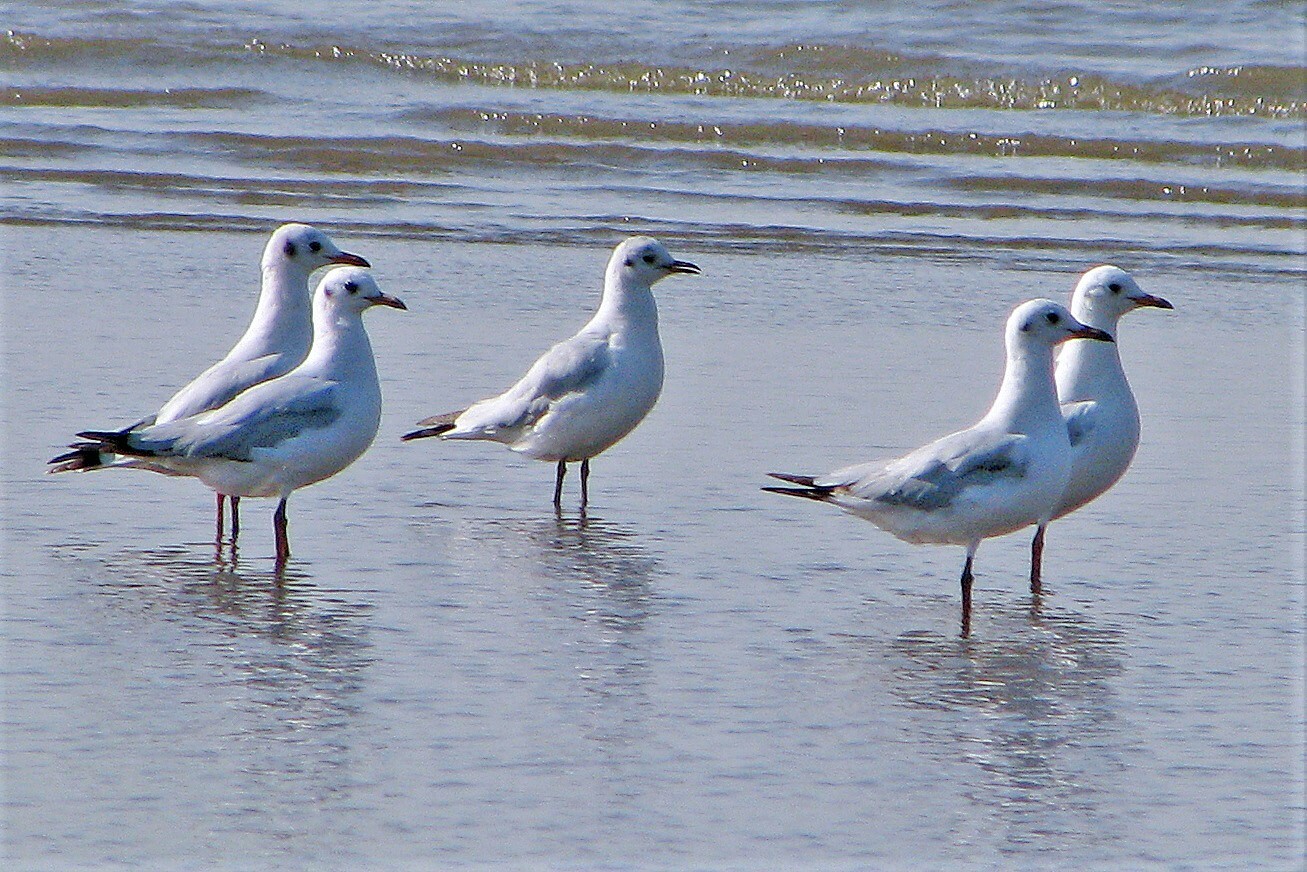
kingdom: Animalia
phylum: Chordata
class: Aves
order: Charadriiformes
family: Laridae
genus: Chroicocephalus
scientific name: Chroicocephalus maculipennis
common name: Brown-hooded gull
